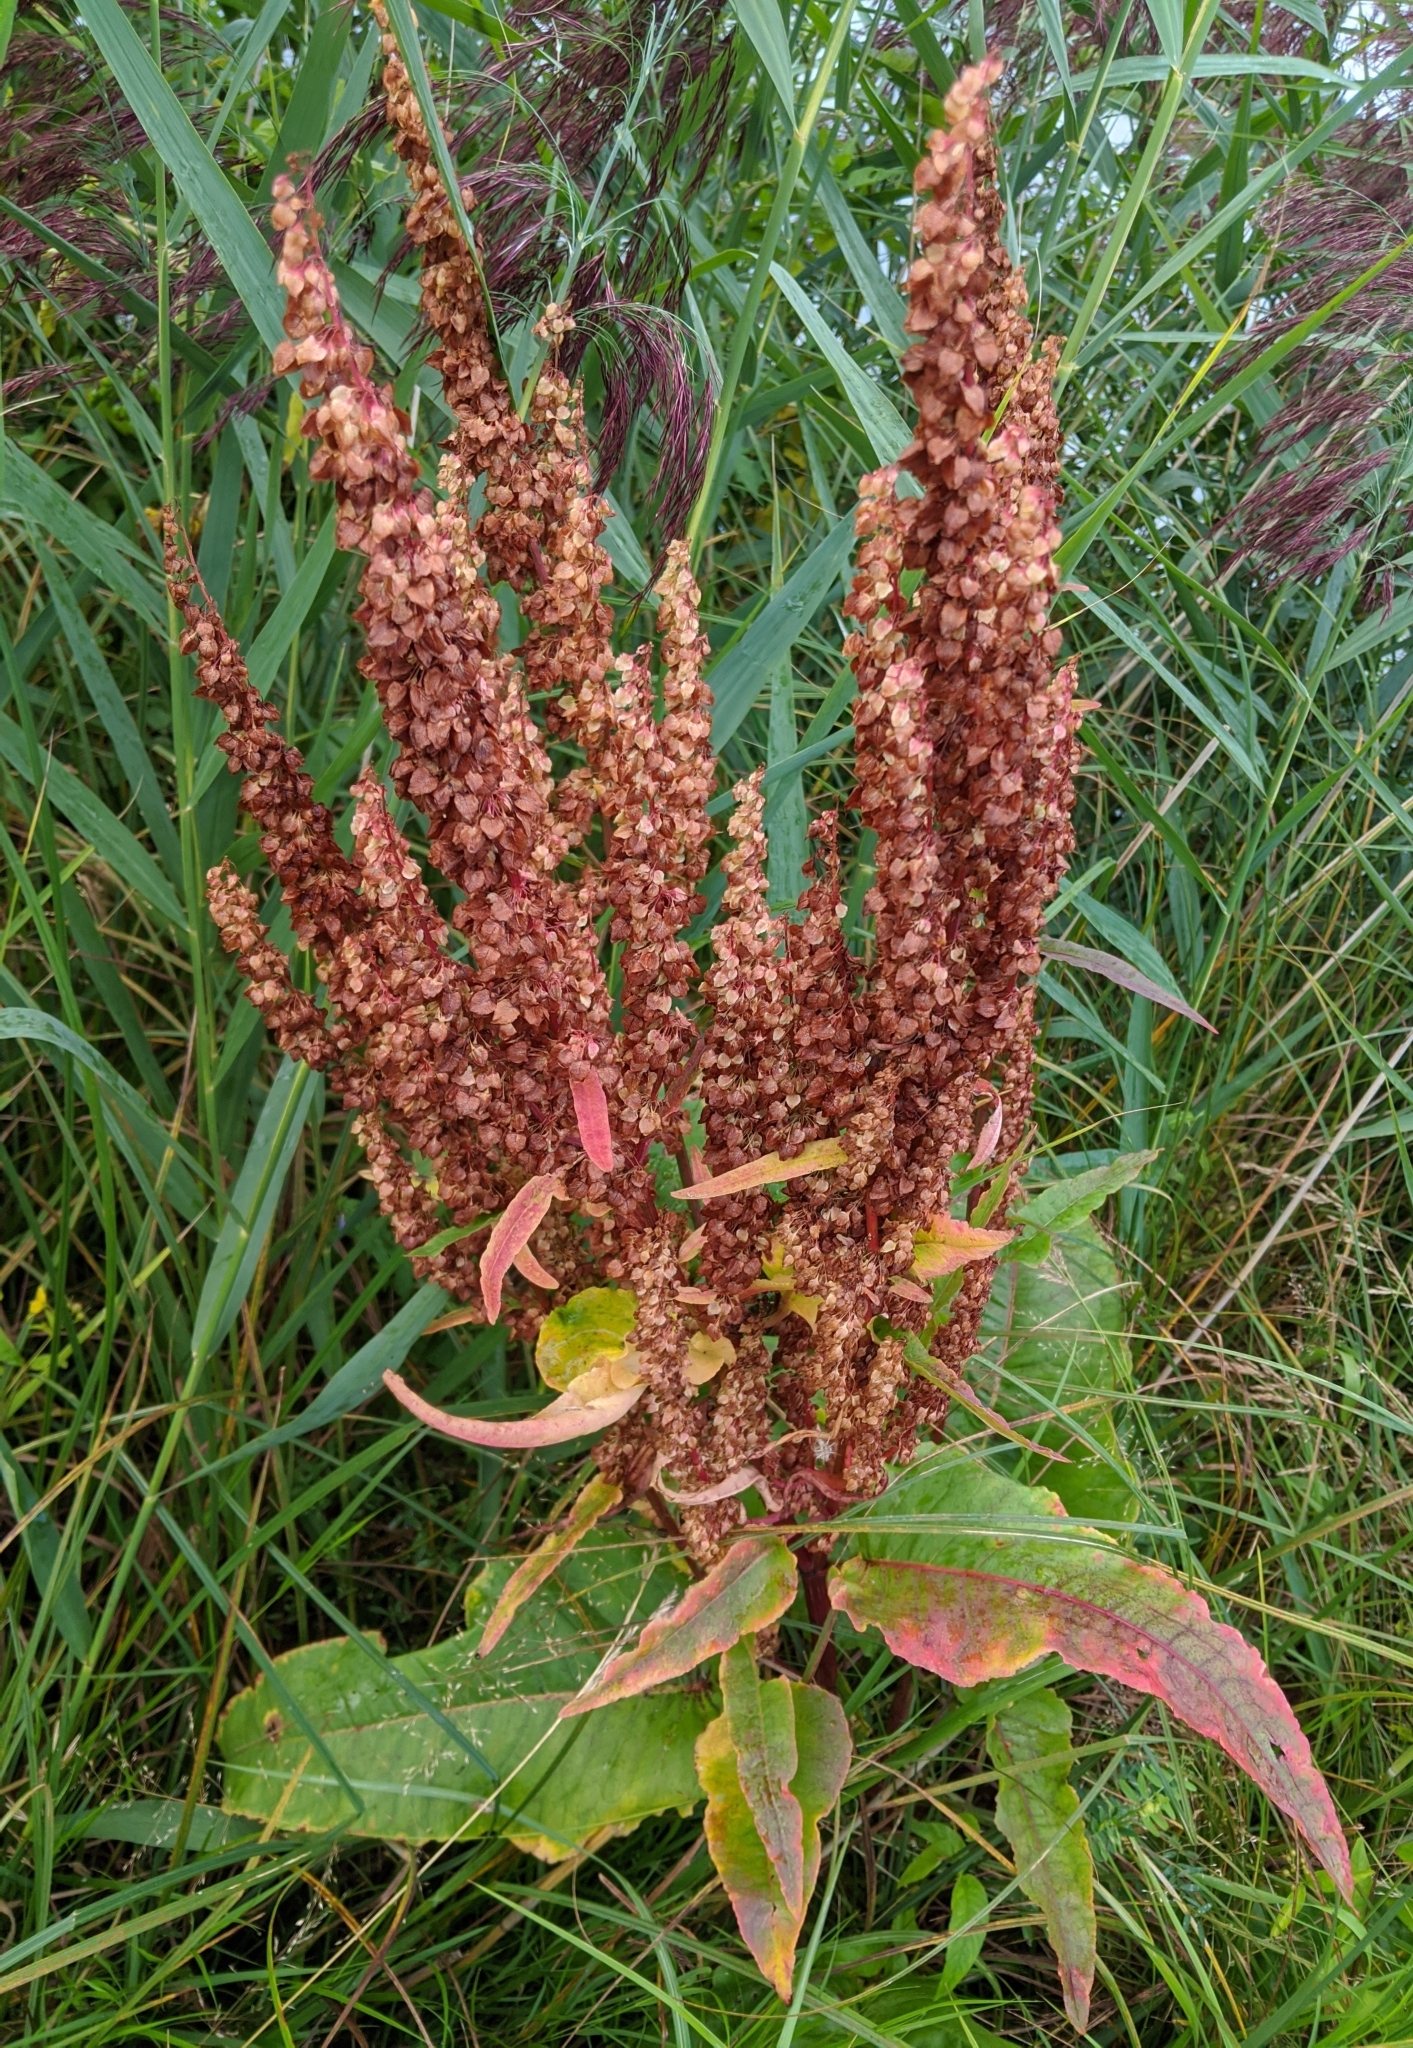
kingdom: Plantae
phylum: Tracheophyta
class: Magnoliopsida
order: Caryophyllales
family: Polygonaceae
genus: Rumex
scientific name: Rumex aquaticus
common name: Scottish dock
